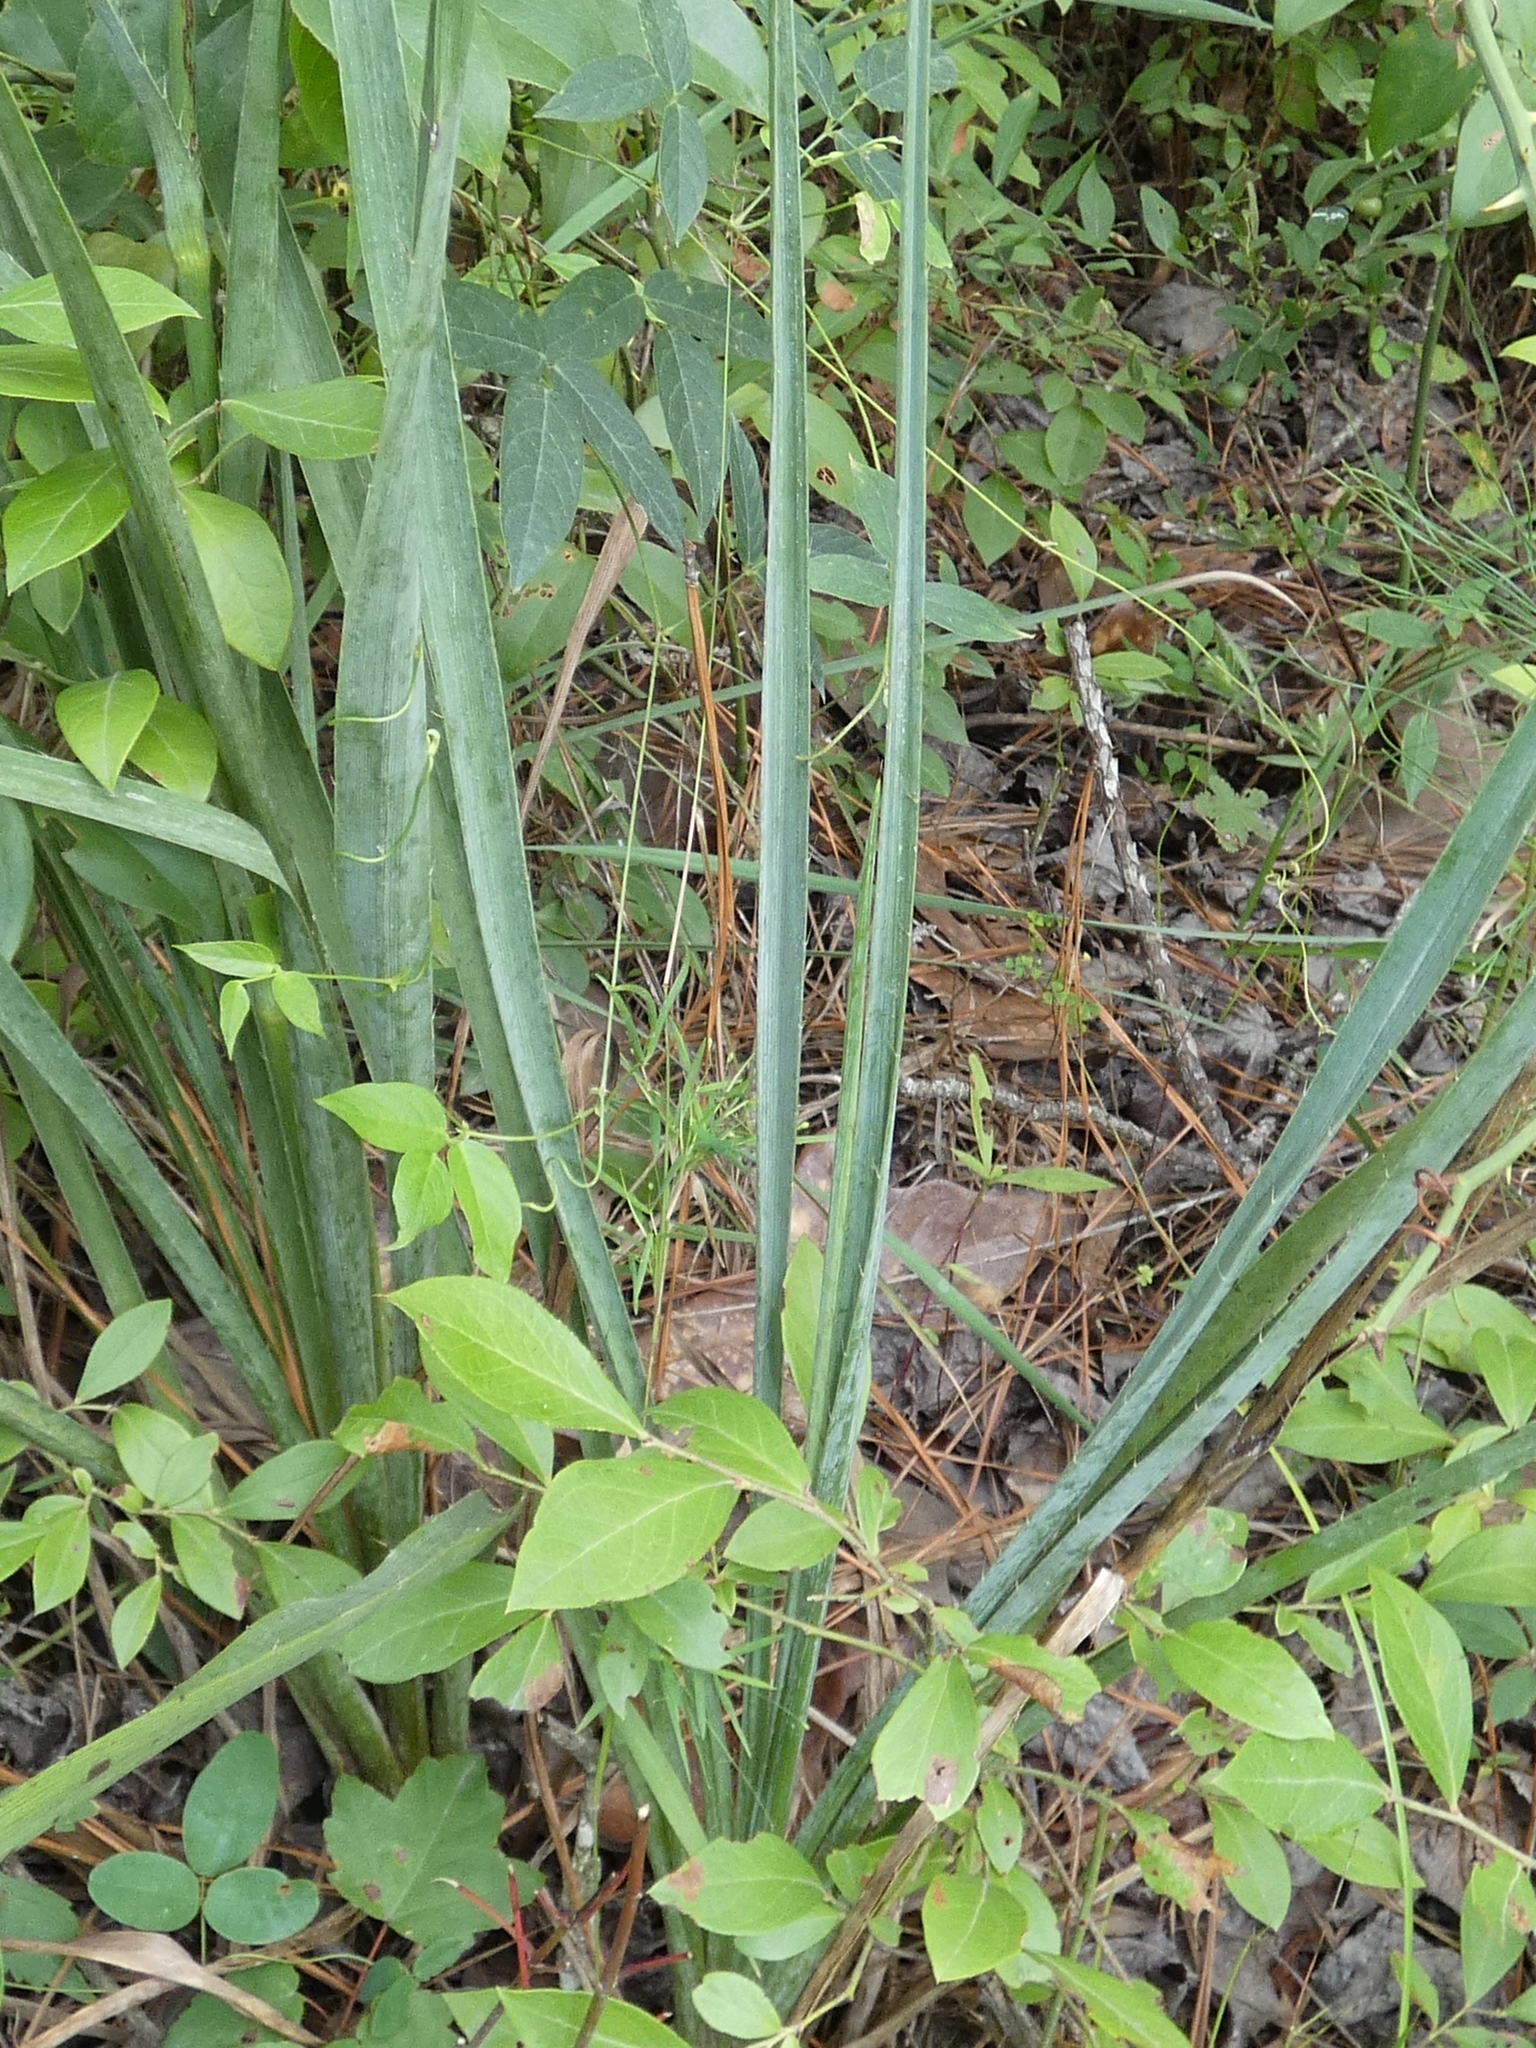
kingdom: Plantae
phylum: Tracheophyta
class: Magnoliopsida
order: Apiales
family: Apiaceae
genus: Eryngium
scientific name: Eryngium yuccifolium
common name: Button eryngo
